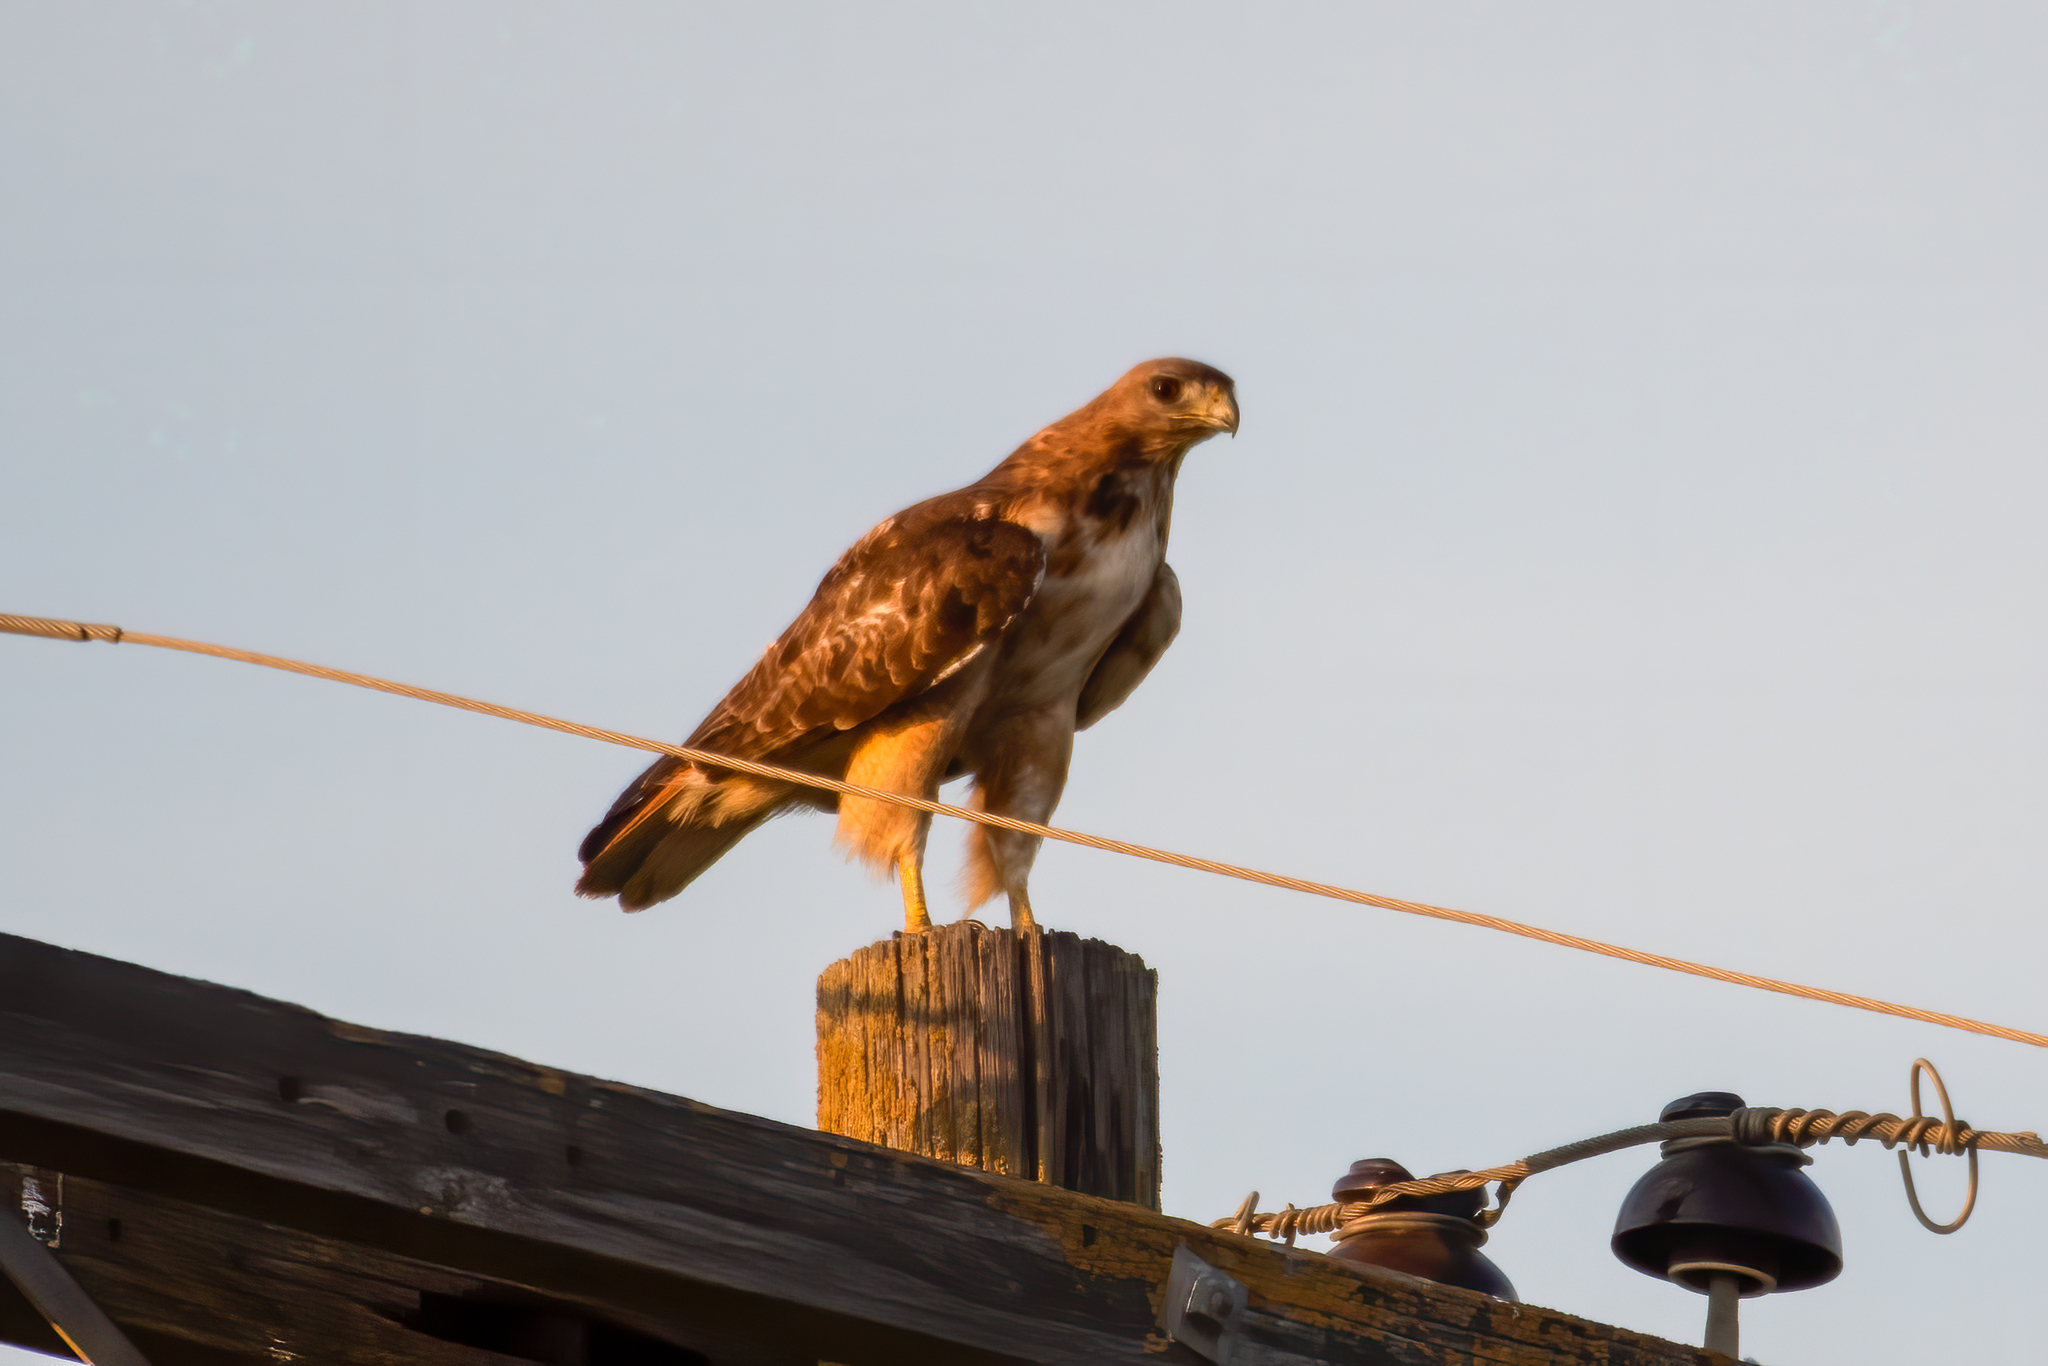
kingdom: Animalia
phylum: Chordata
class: Aves
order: Accipitriformes
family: Accipitridae
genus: Buteo
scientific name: Buteo jamaicensis
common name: Red-tailed hawk
